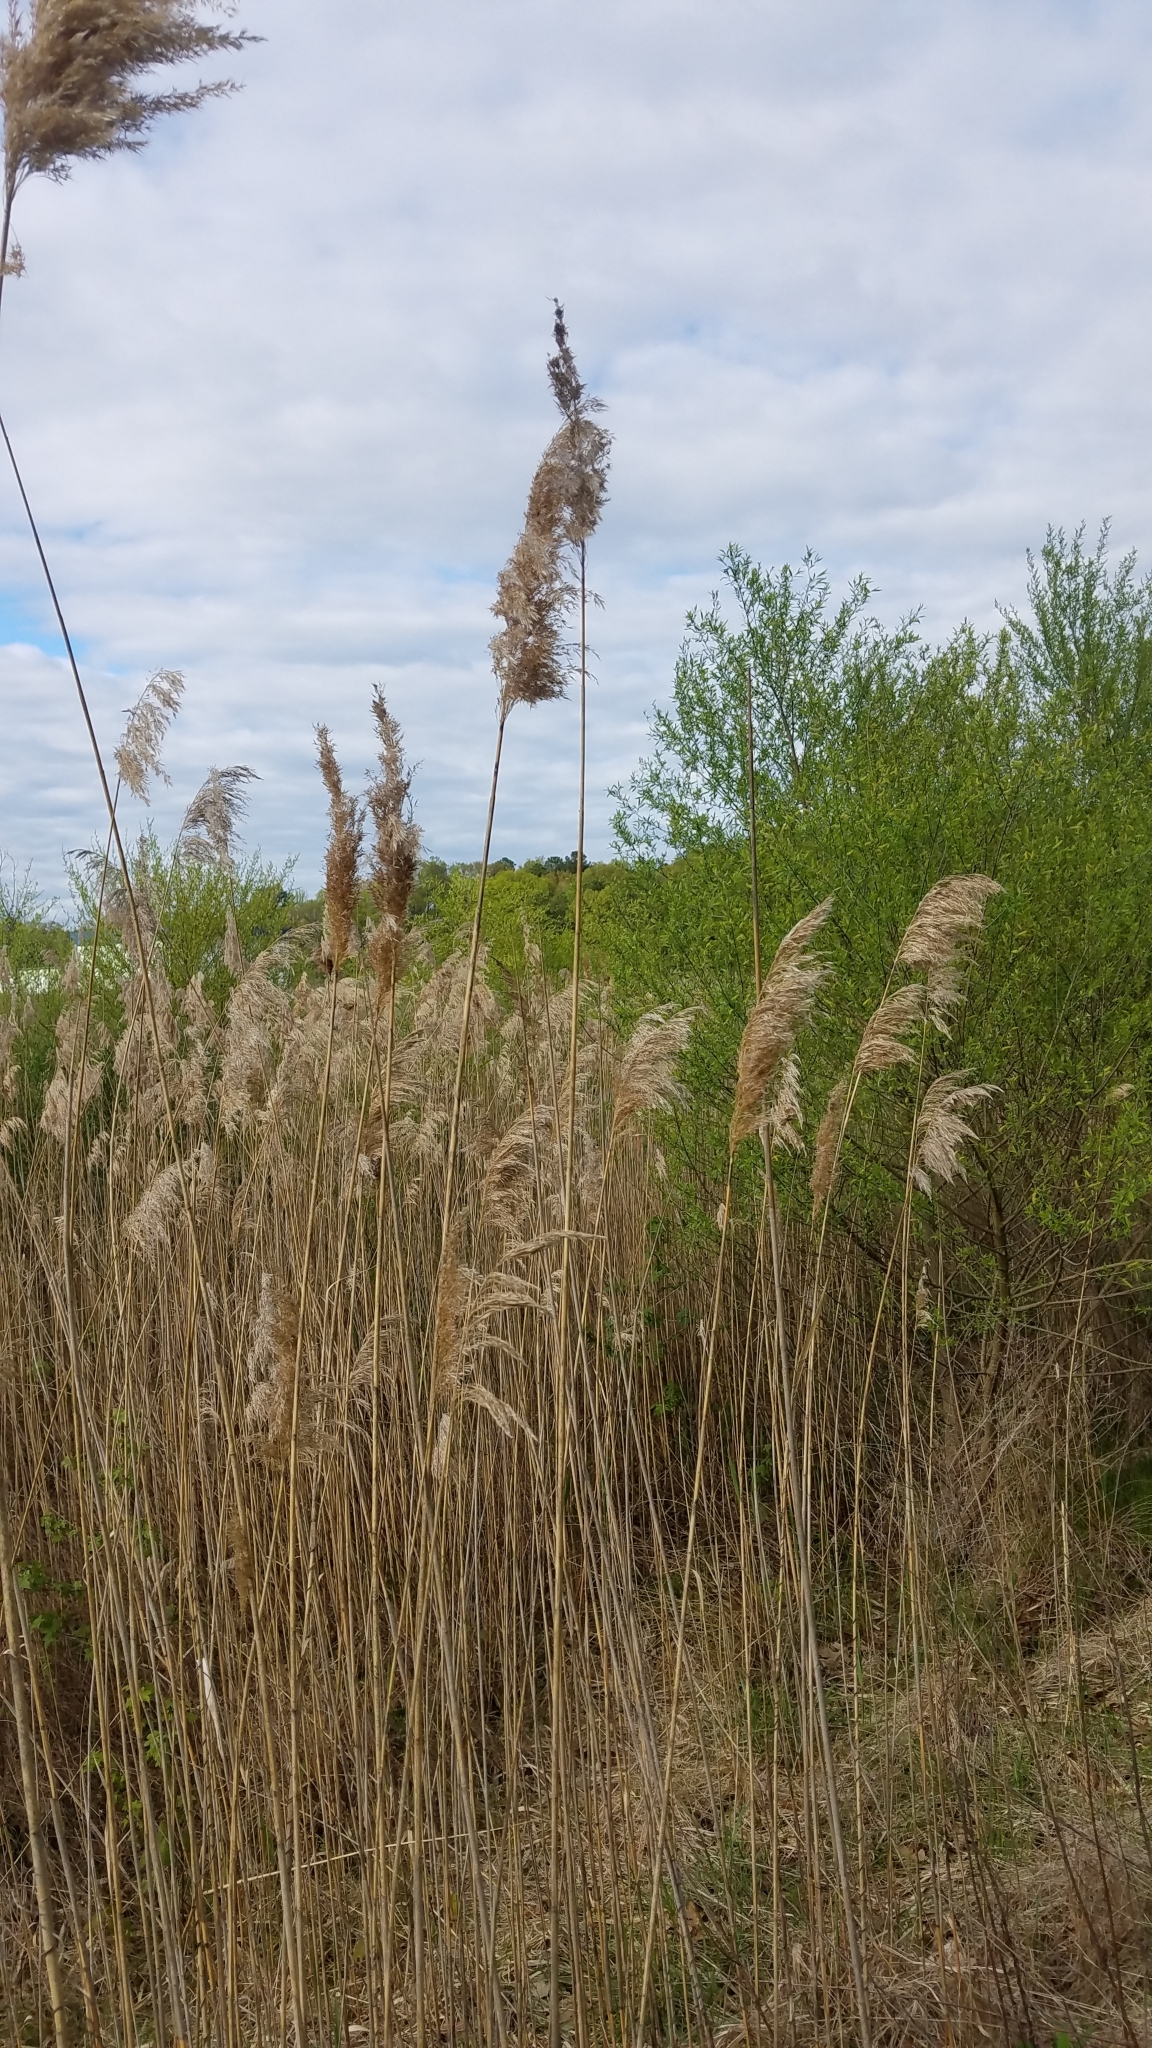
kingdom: Plantae
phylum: Tracheophyta
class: Liliopsida
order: Poales
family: Poaceae
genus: Phragmites
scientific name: Phragmites australis
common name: Common reed
